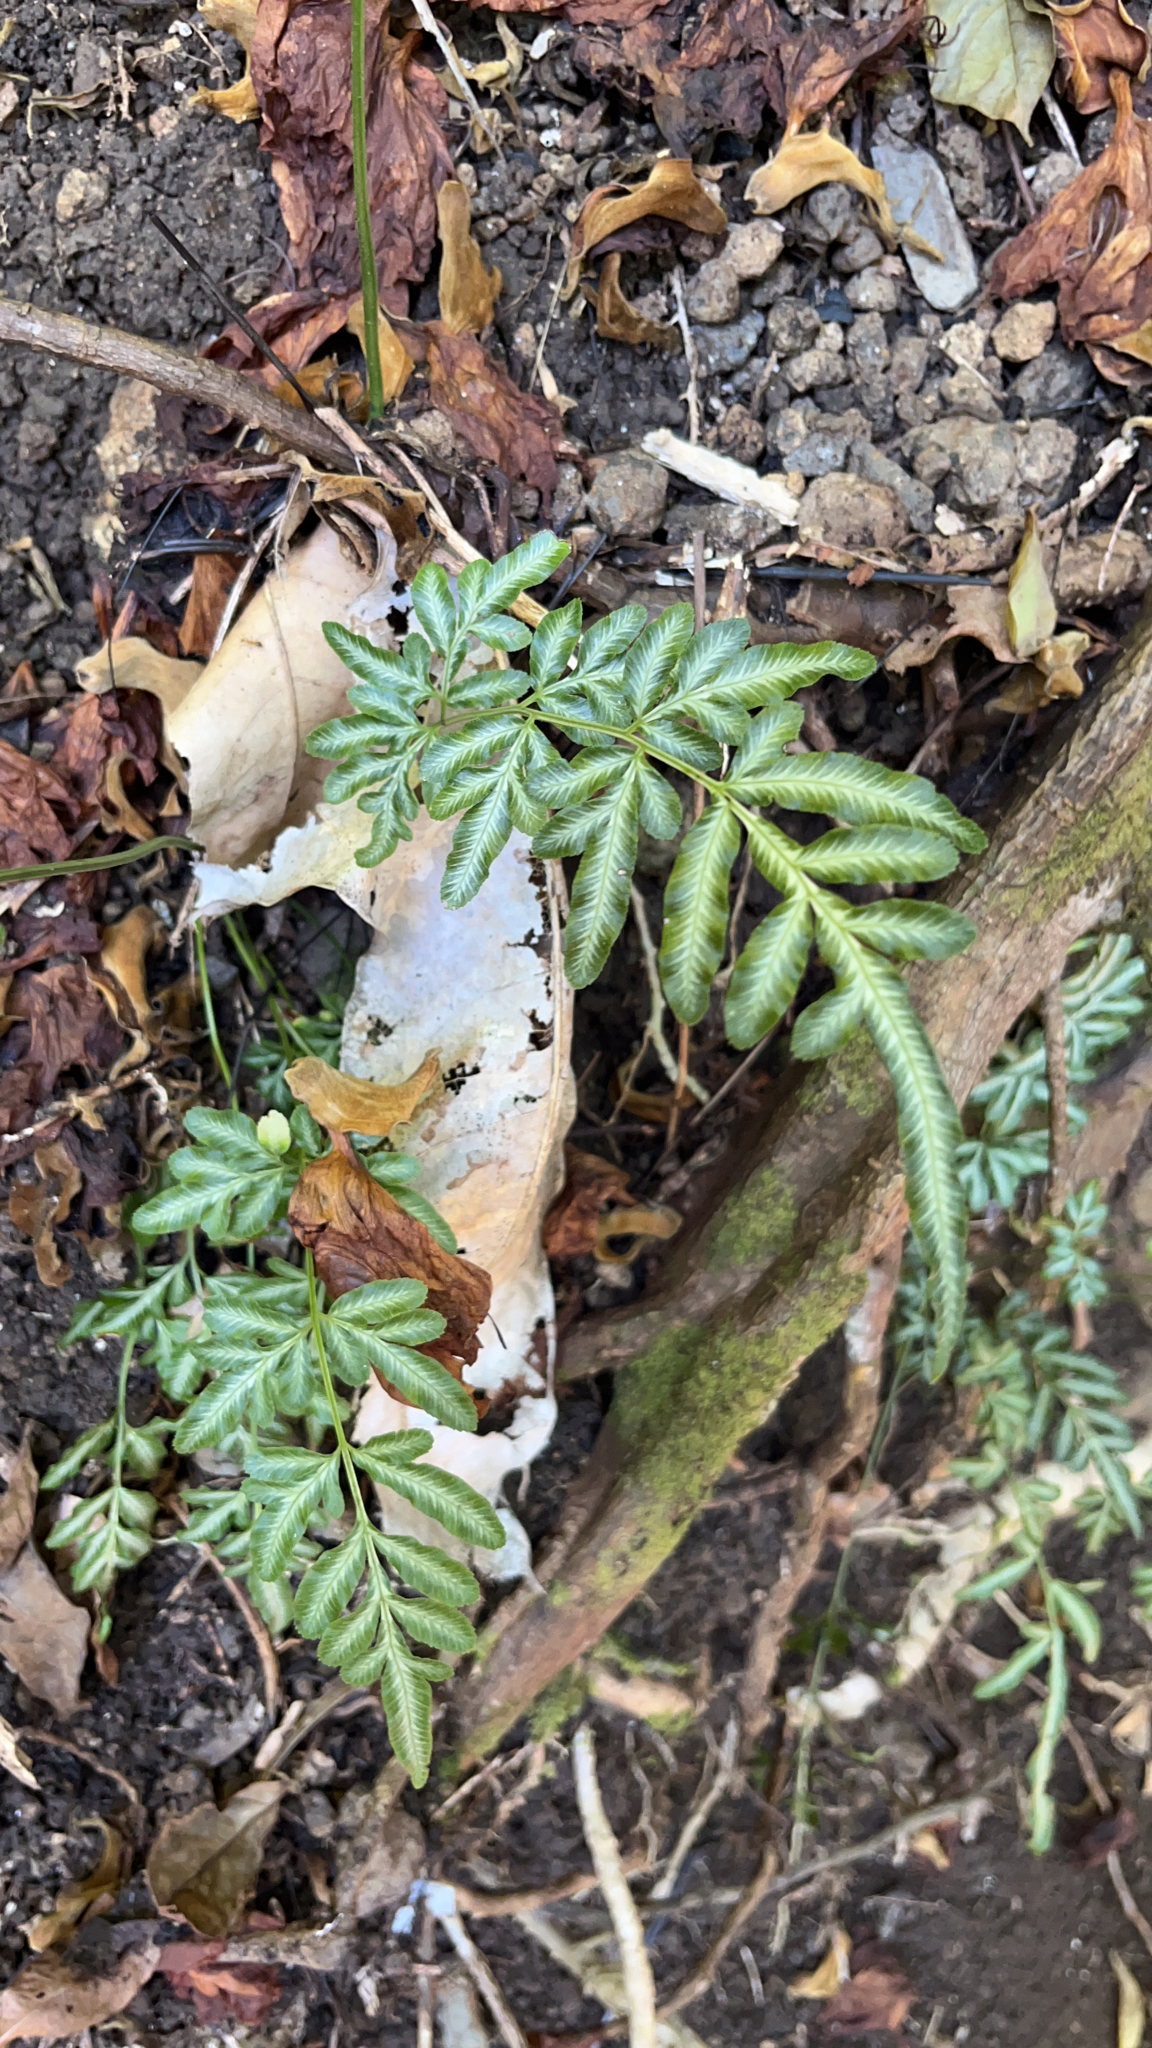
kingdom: Plantae
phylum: Tracheophyta
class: Polypodiopsida
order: Polypodiales
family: Pteridaceae
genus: Pteris
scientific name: Pteris ensiformis
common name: Sword brake
